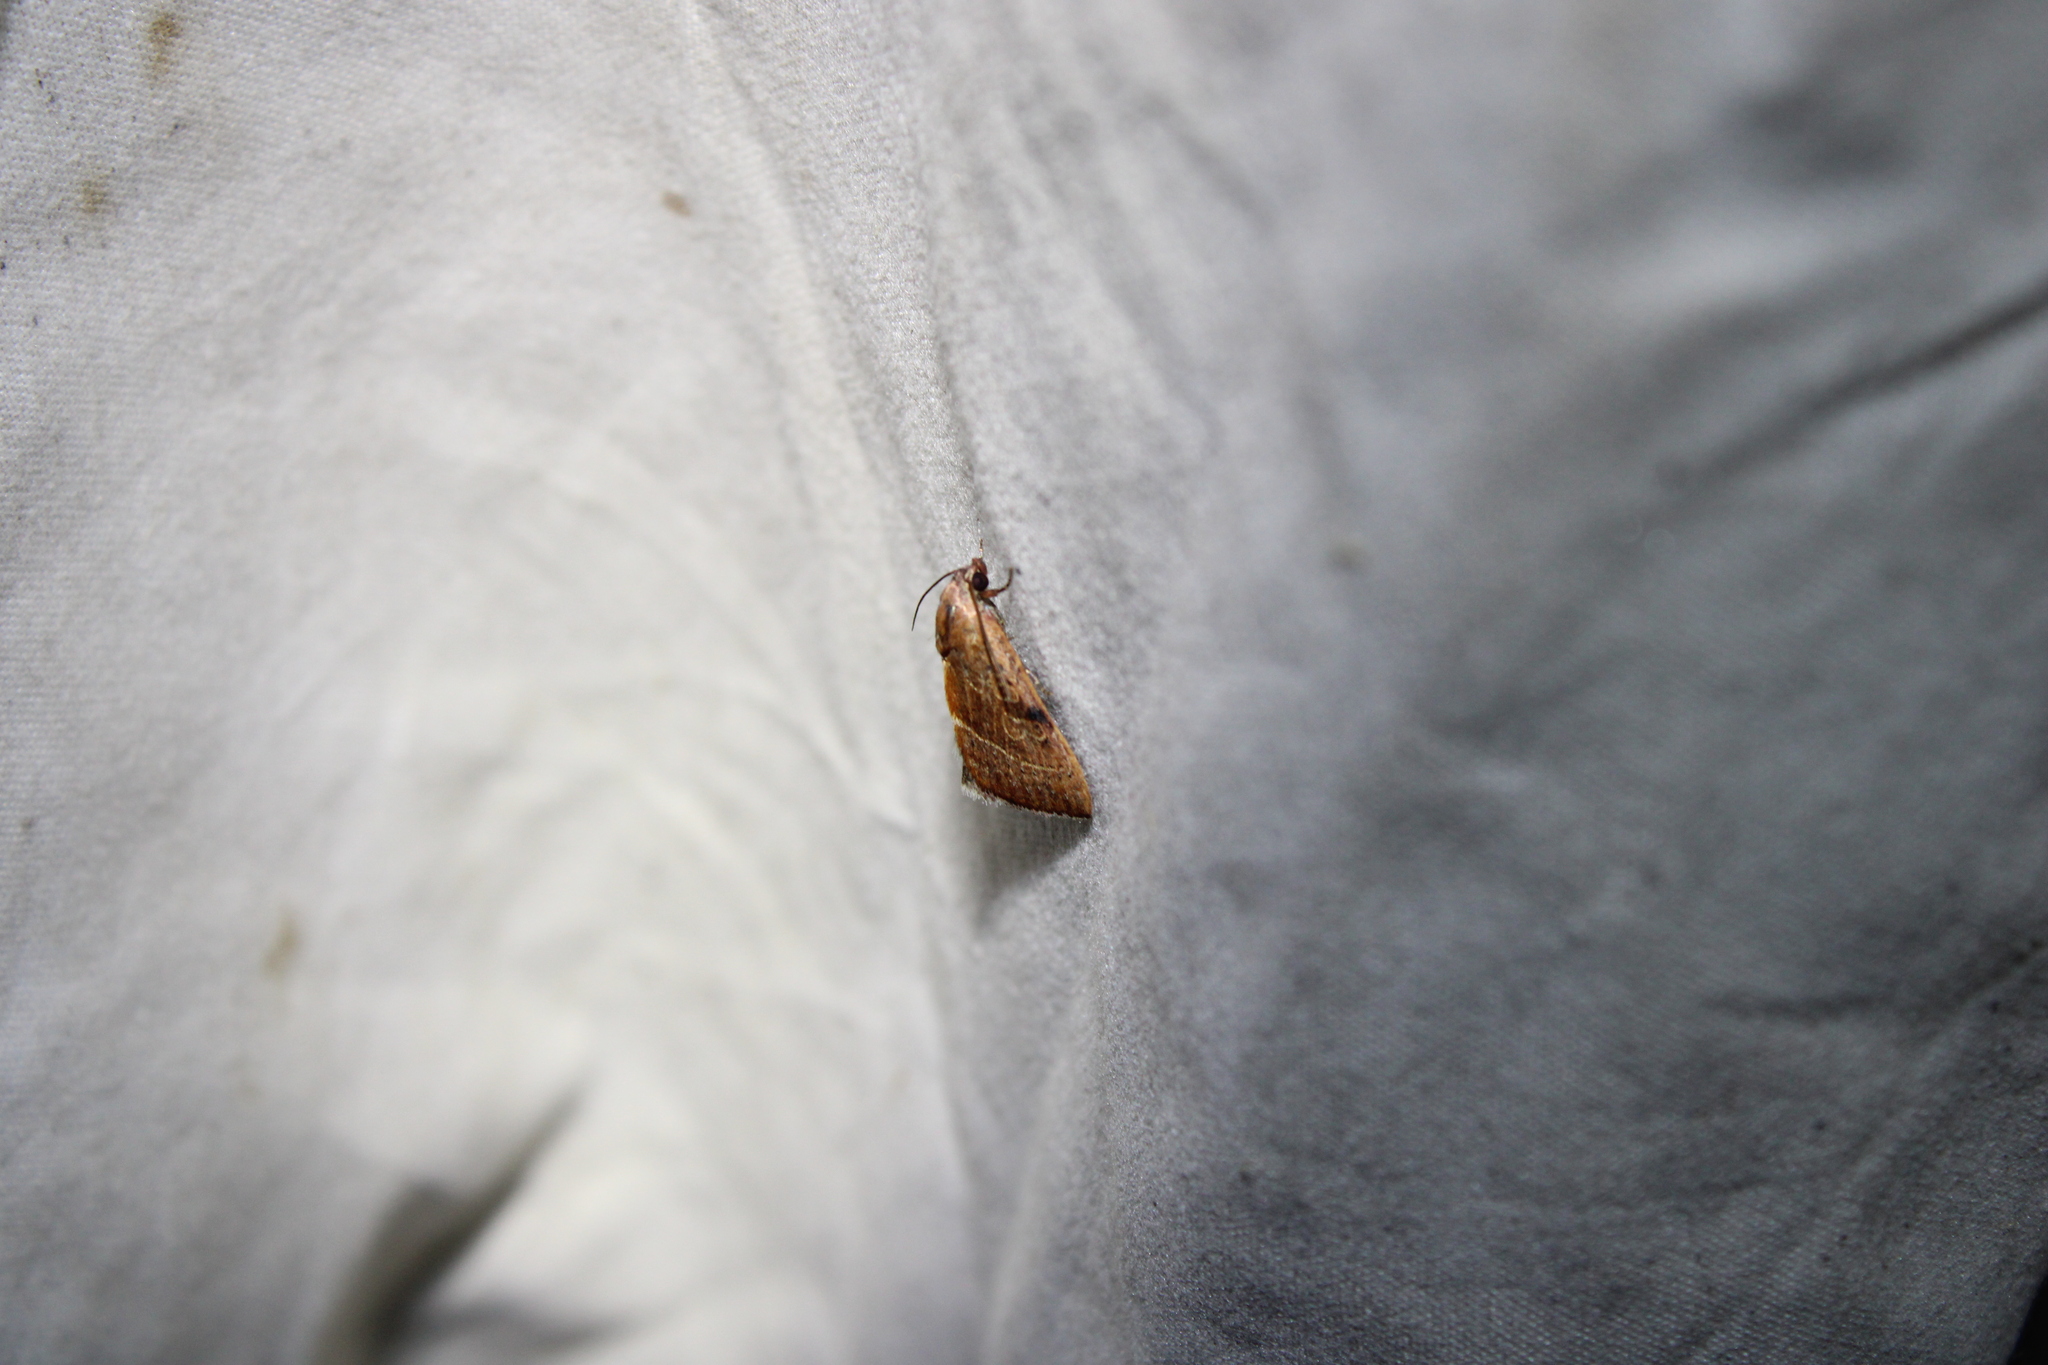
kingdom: Animalia
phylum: Arthropoda
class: Insecta
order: Lepidoptera
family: Noctuidae
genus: Galgula
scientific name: Galgula partita
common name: Wedgeling
